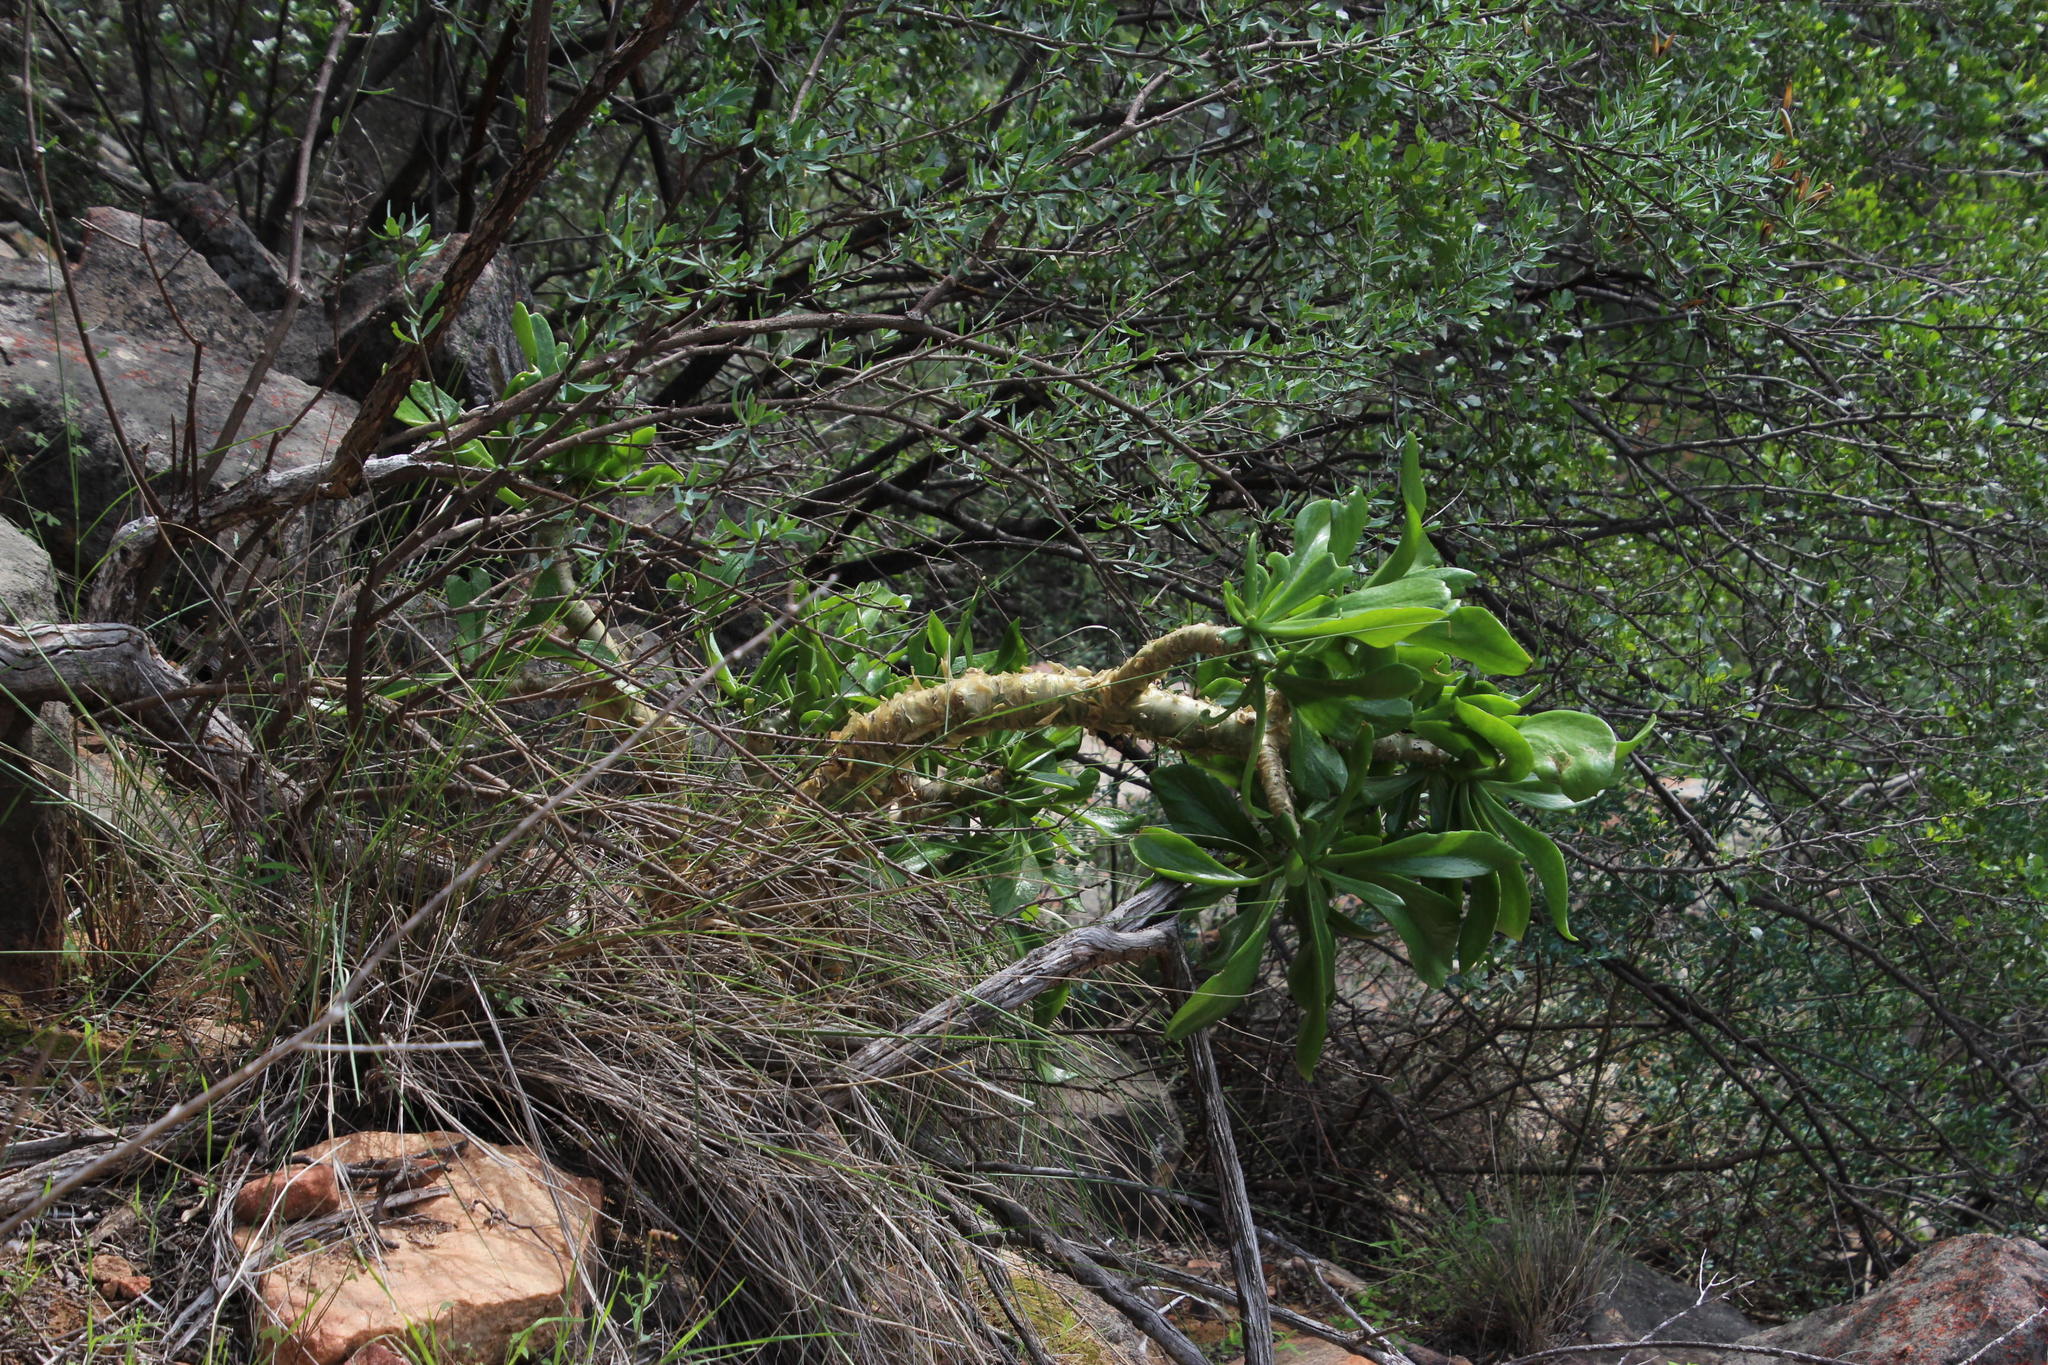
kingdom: Plantae
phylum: Tracheophyta
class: Magnoliopsida
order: Saxifragales
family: Crassulaceae
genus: Tylecodon
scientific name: Tylecodon paniculatus
